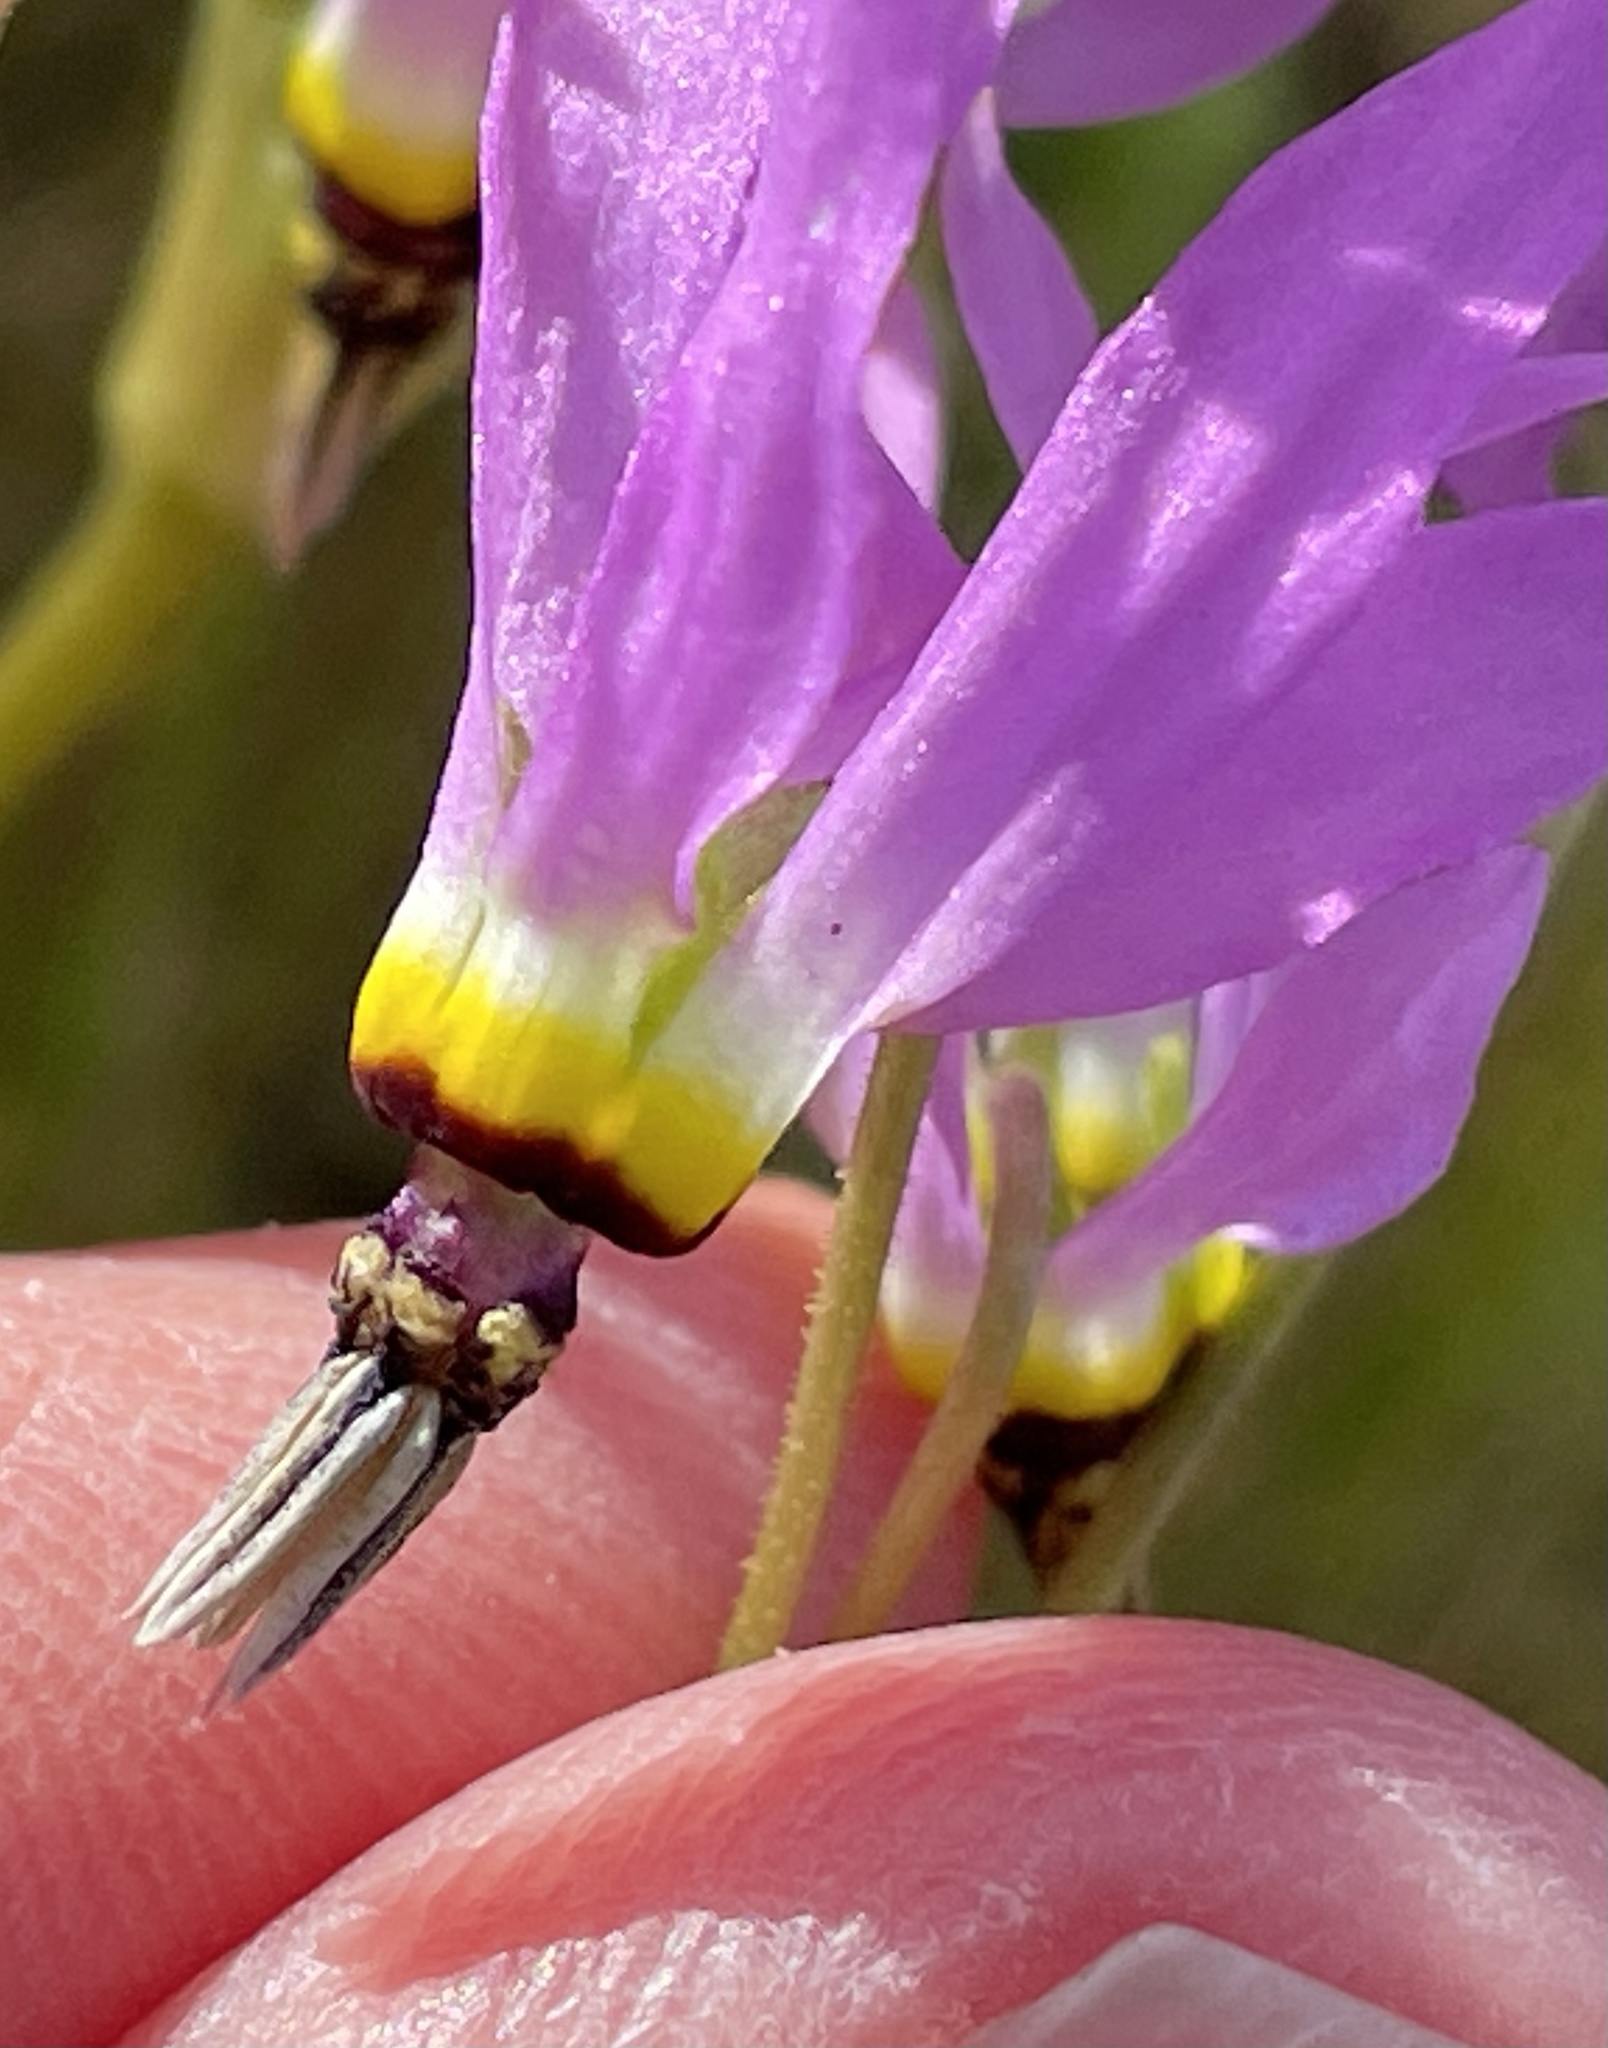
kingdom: Plantae
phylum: Tracheophyta
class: Magnoliopsida
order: Ericales
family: Primulaceae
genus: Dodecatheon
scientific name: Dodecatheon clevelandii
